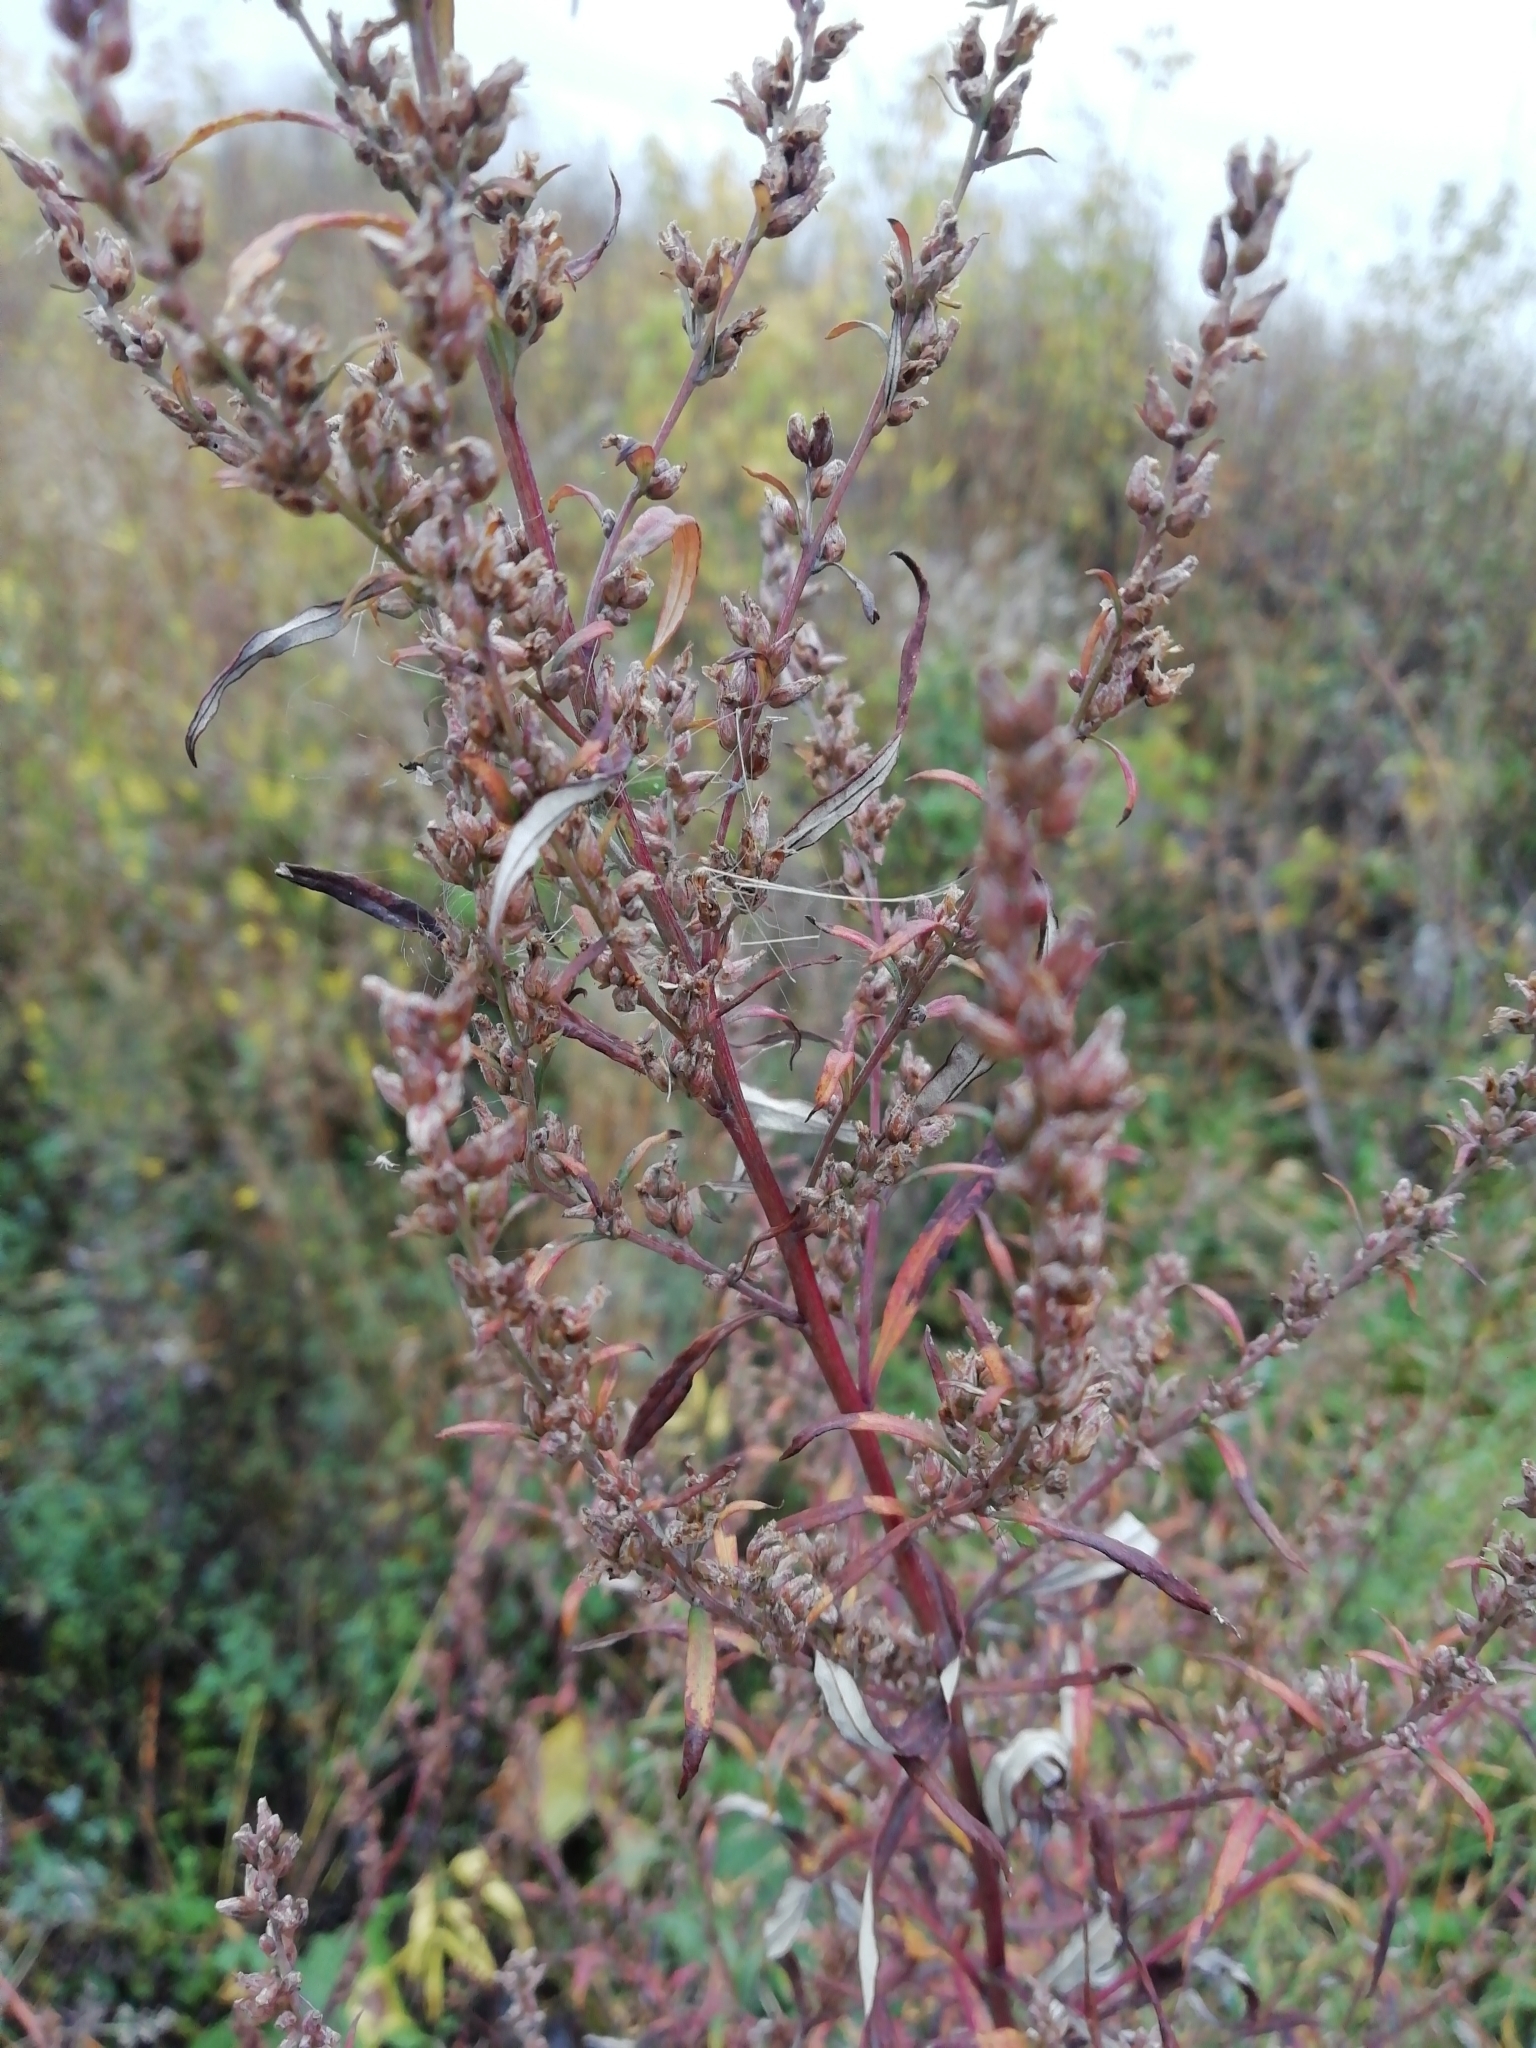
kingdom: Plantae
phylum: Tracheophyta
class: Magnoliopsida
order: Asterales
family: Asteraceae
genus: Artemisia
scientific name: Artemisia vulgaris
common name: Mugwort
